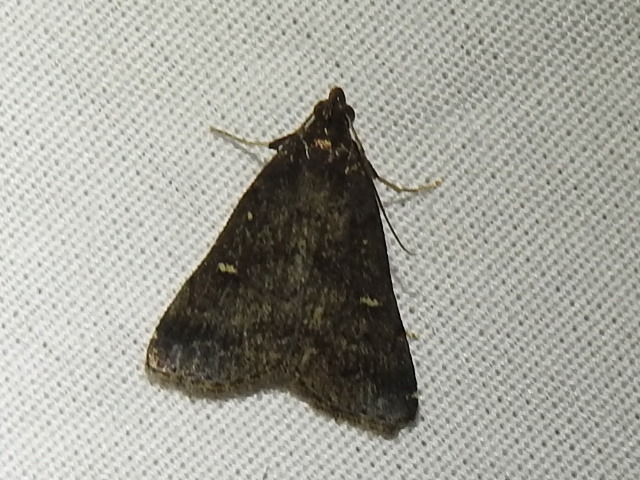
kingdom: Animalia
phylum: Arthropoda
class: Insecta
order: Lepidoptera
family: Erebidae
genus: Tetanolita
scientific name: Tetanolita mynesalis
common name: Smoky tetanolita moth
